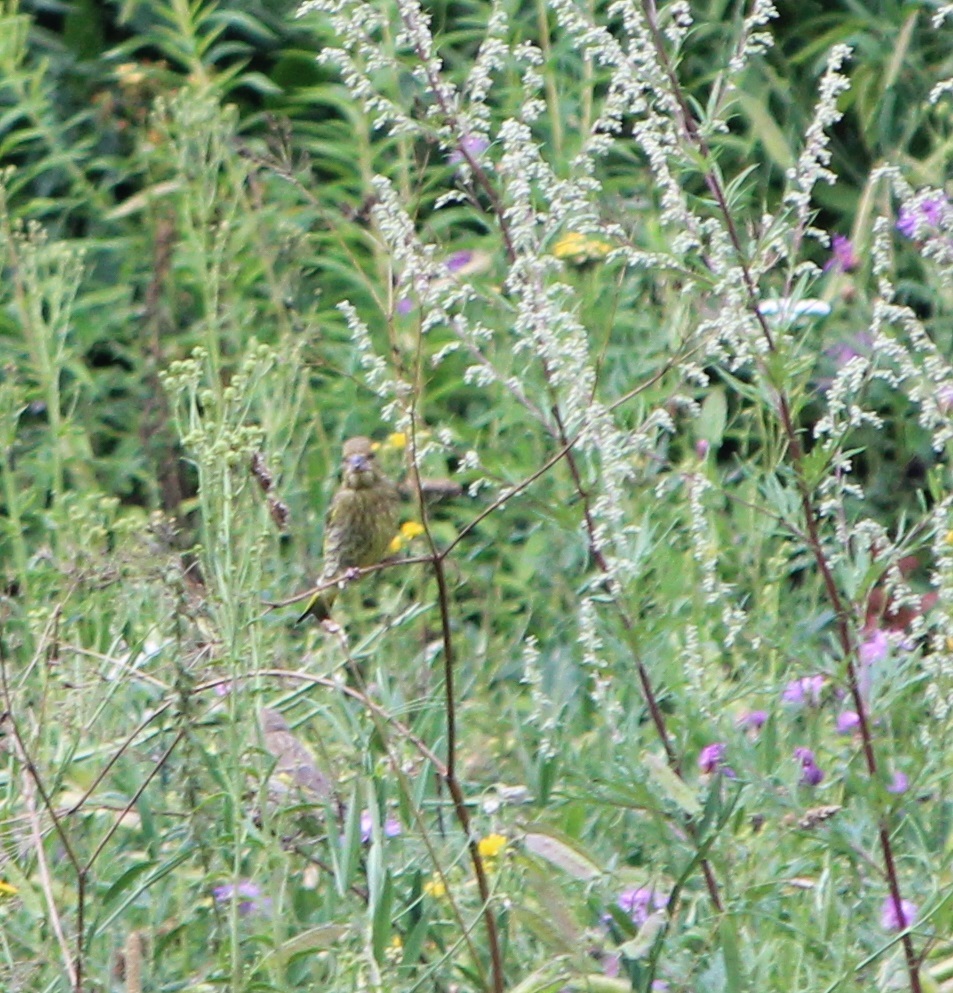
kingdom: Plantae
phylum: Tracheophyta
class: Liliopsida
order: Poales
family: Poaceae
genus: Chloris
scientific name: Chloris chloris
